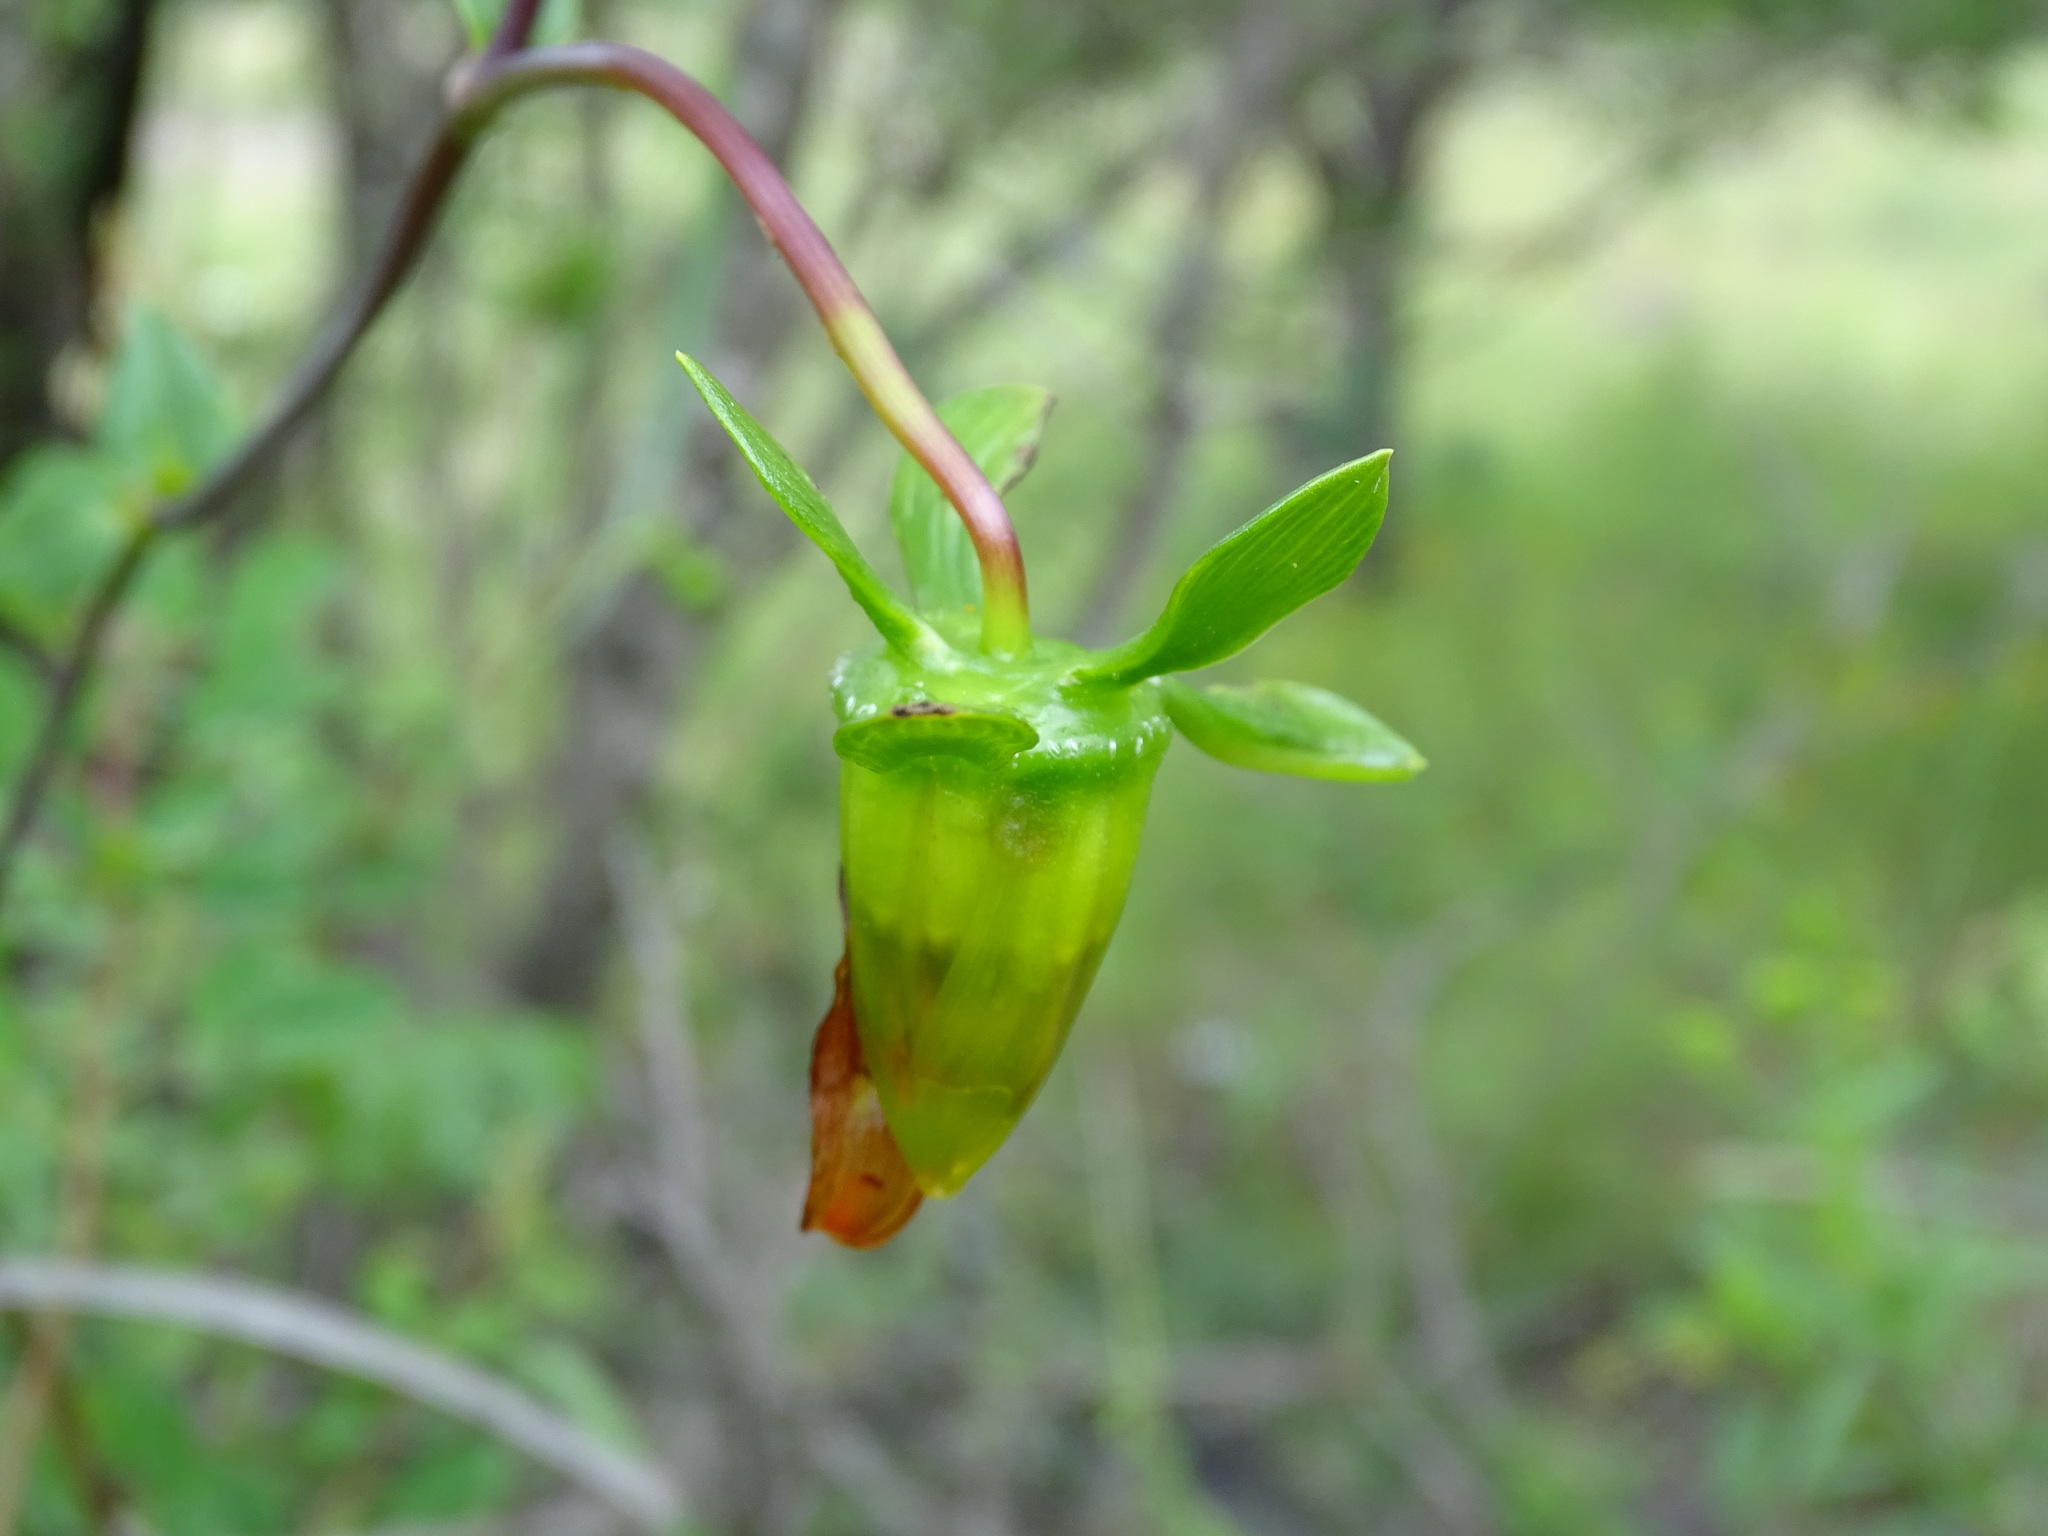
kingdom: Plantae
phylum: Tracheophyta
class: Magnoliopsida
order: Asterales
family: Asteraceae
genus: Dahlia
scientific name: Dahlia coccinea
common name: Red dahlia
